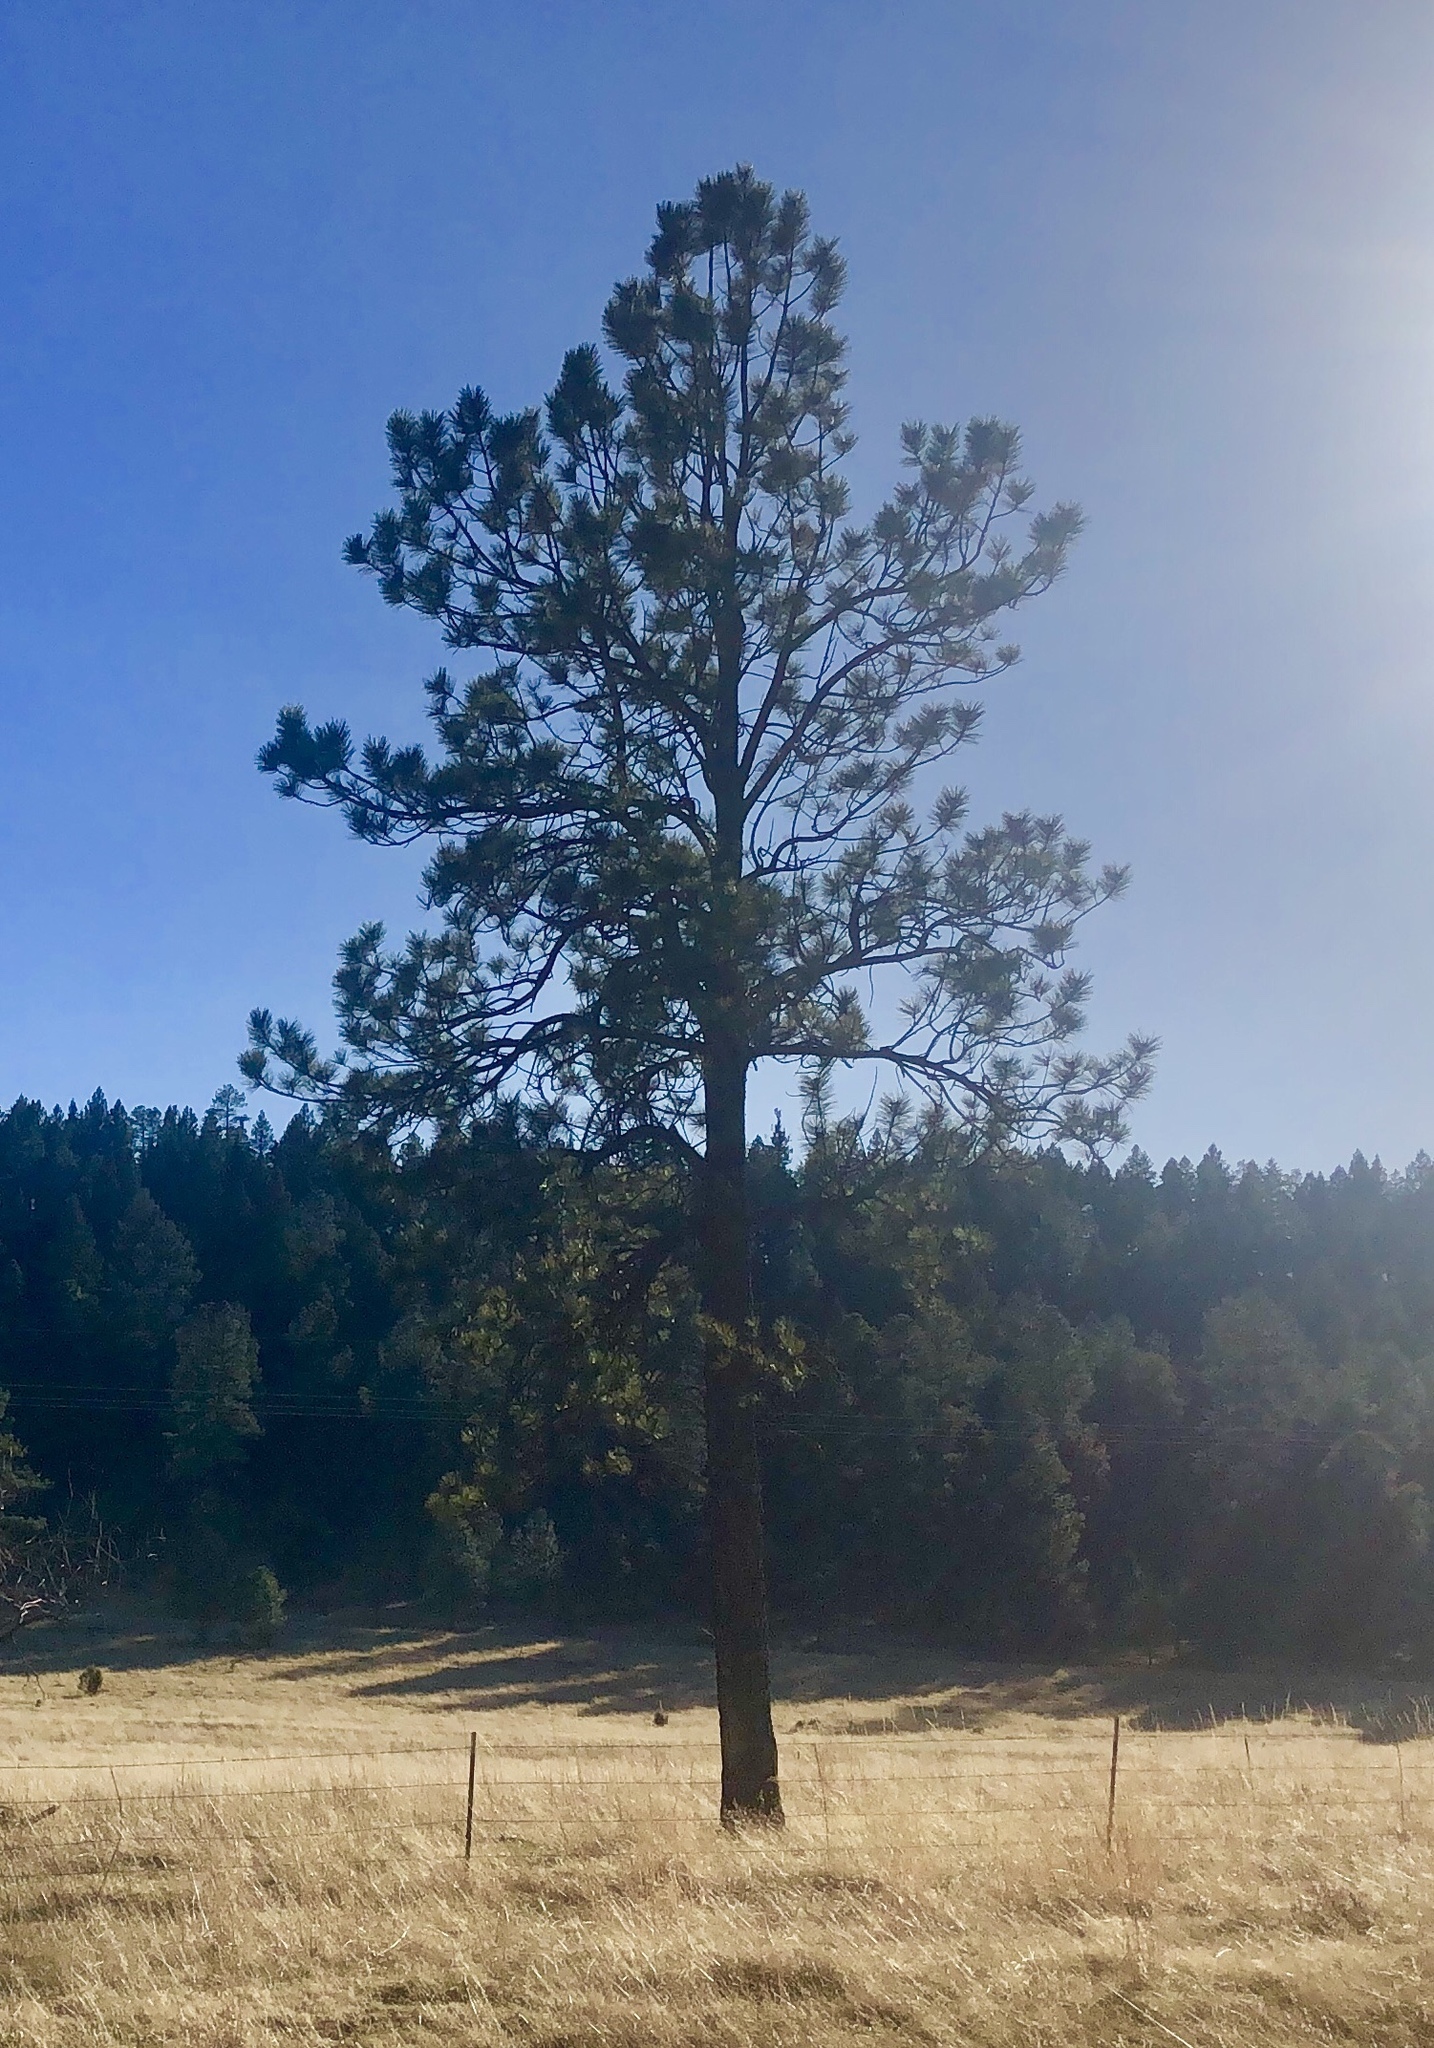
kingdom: Plantae
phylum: Tracheophyta
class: Pinopsida
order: Pinales
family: Pinaceae
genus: Pinus
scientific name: Pinus ponderosa
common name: Western yellow-pine
